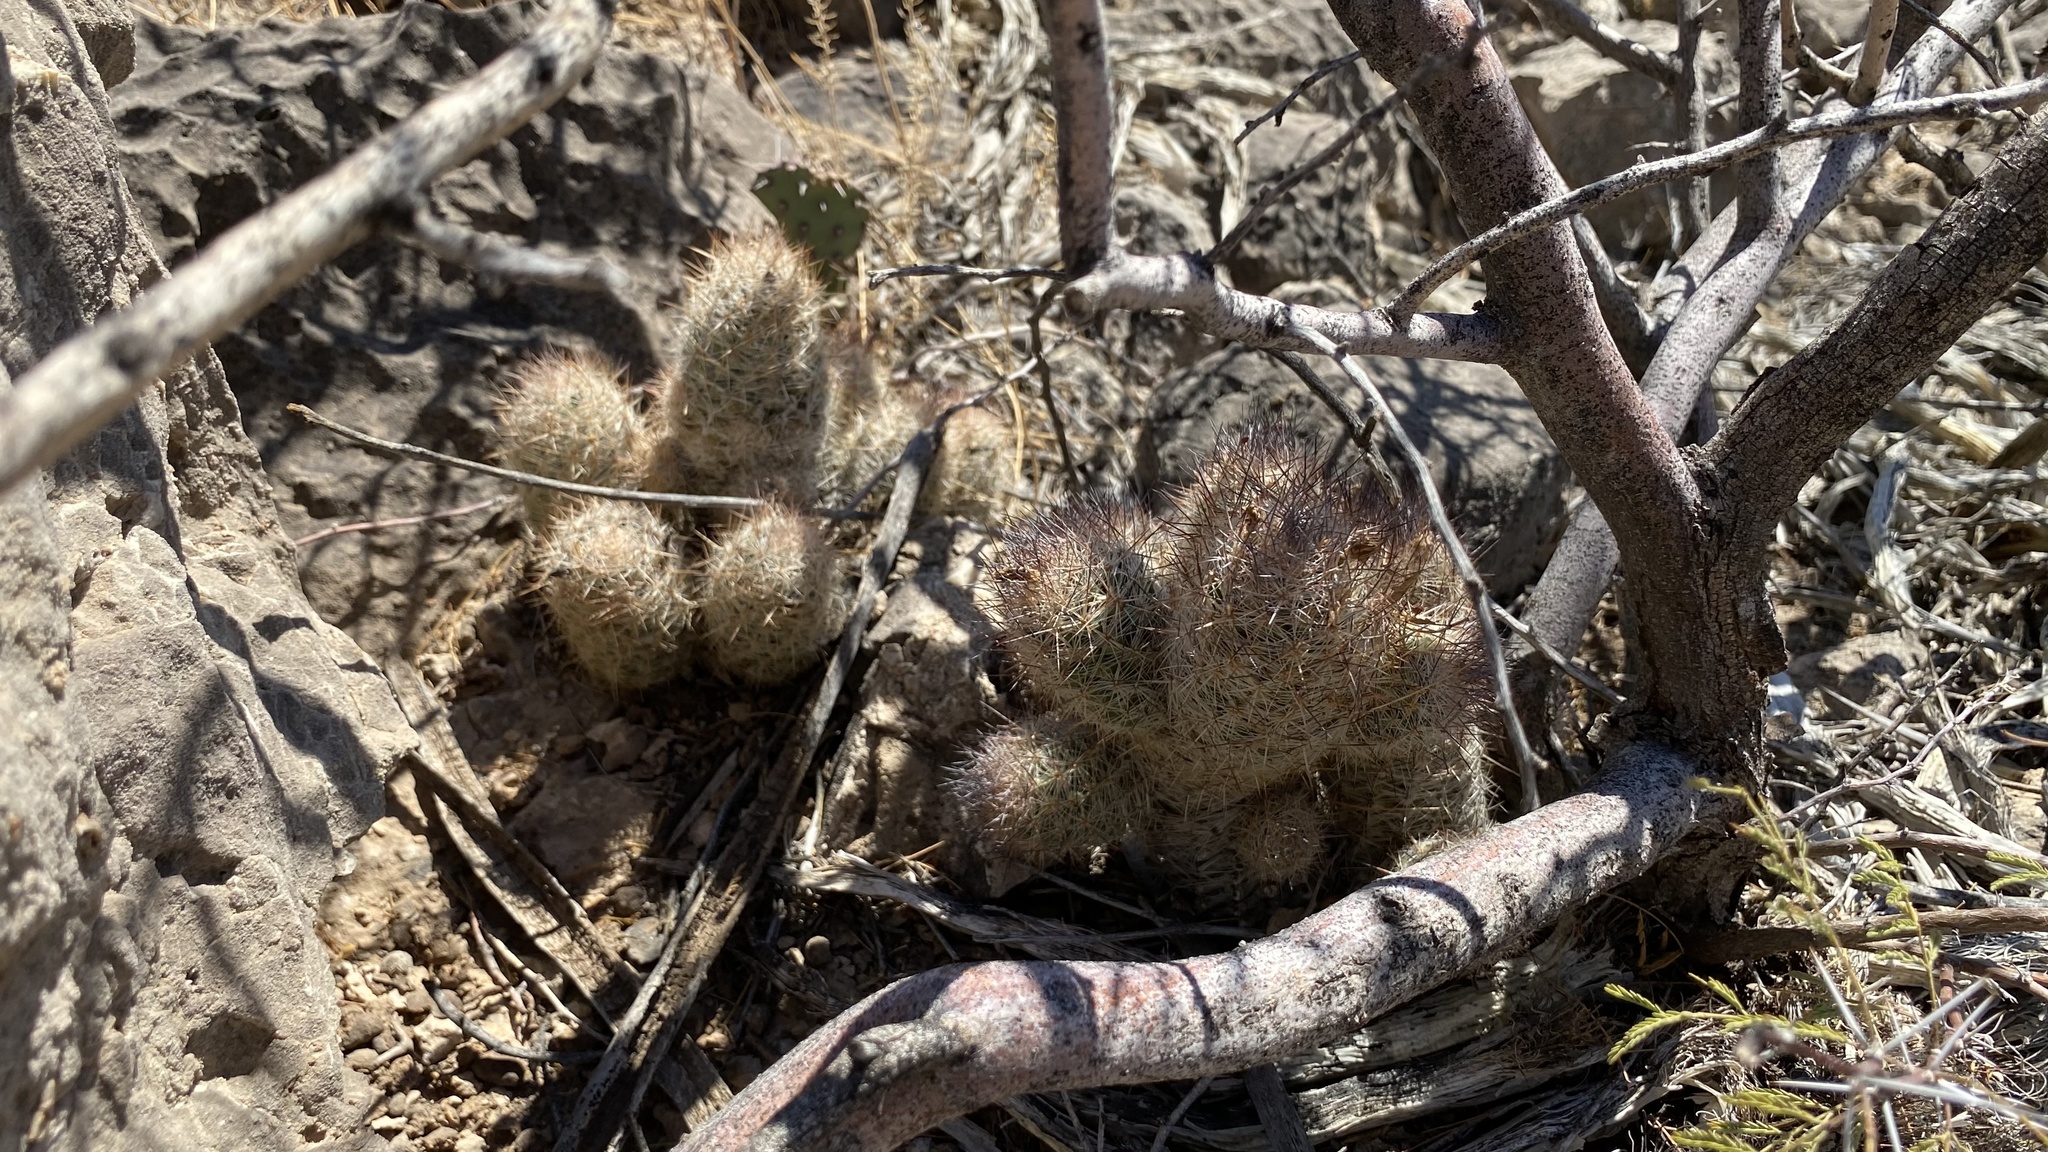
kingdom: Plantae
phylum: Tracheophyta
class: Magnoliopsida
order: Caryophyllales
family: Cactaceae
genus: Pelecyphora
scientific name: Pelecyphora tuberculosa
